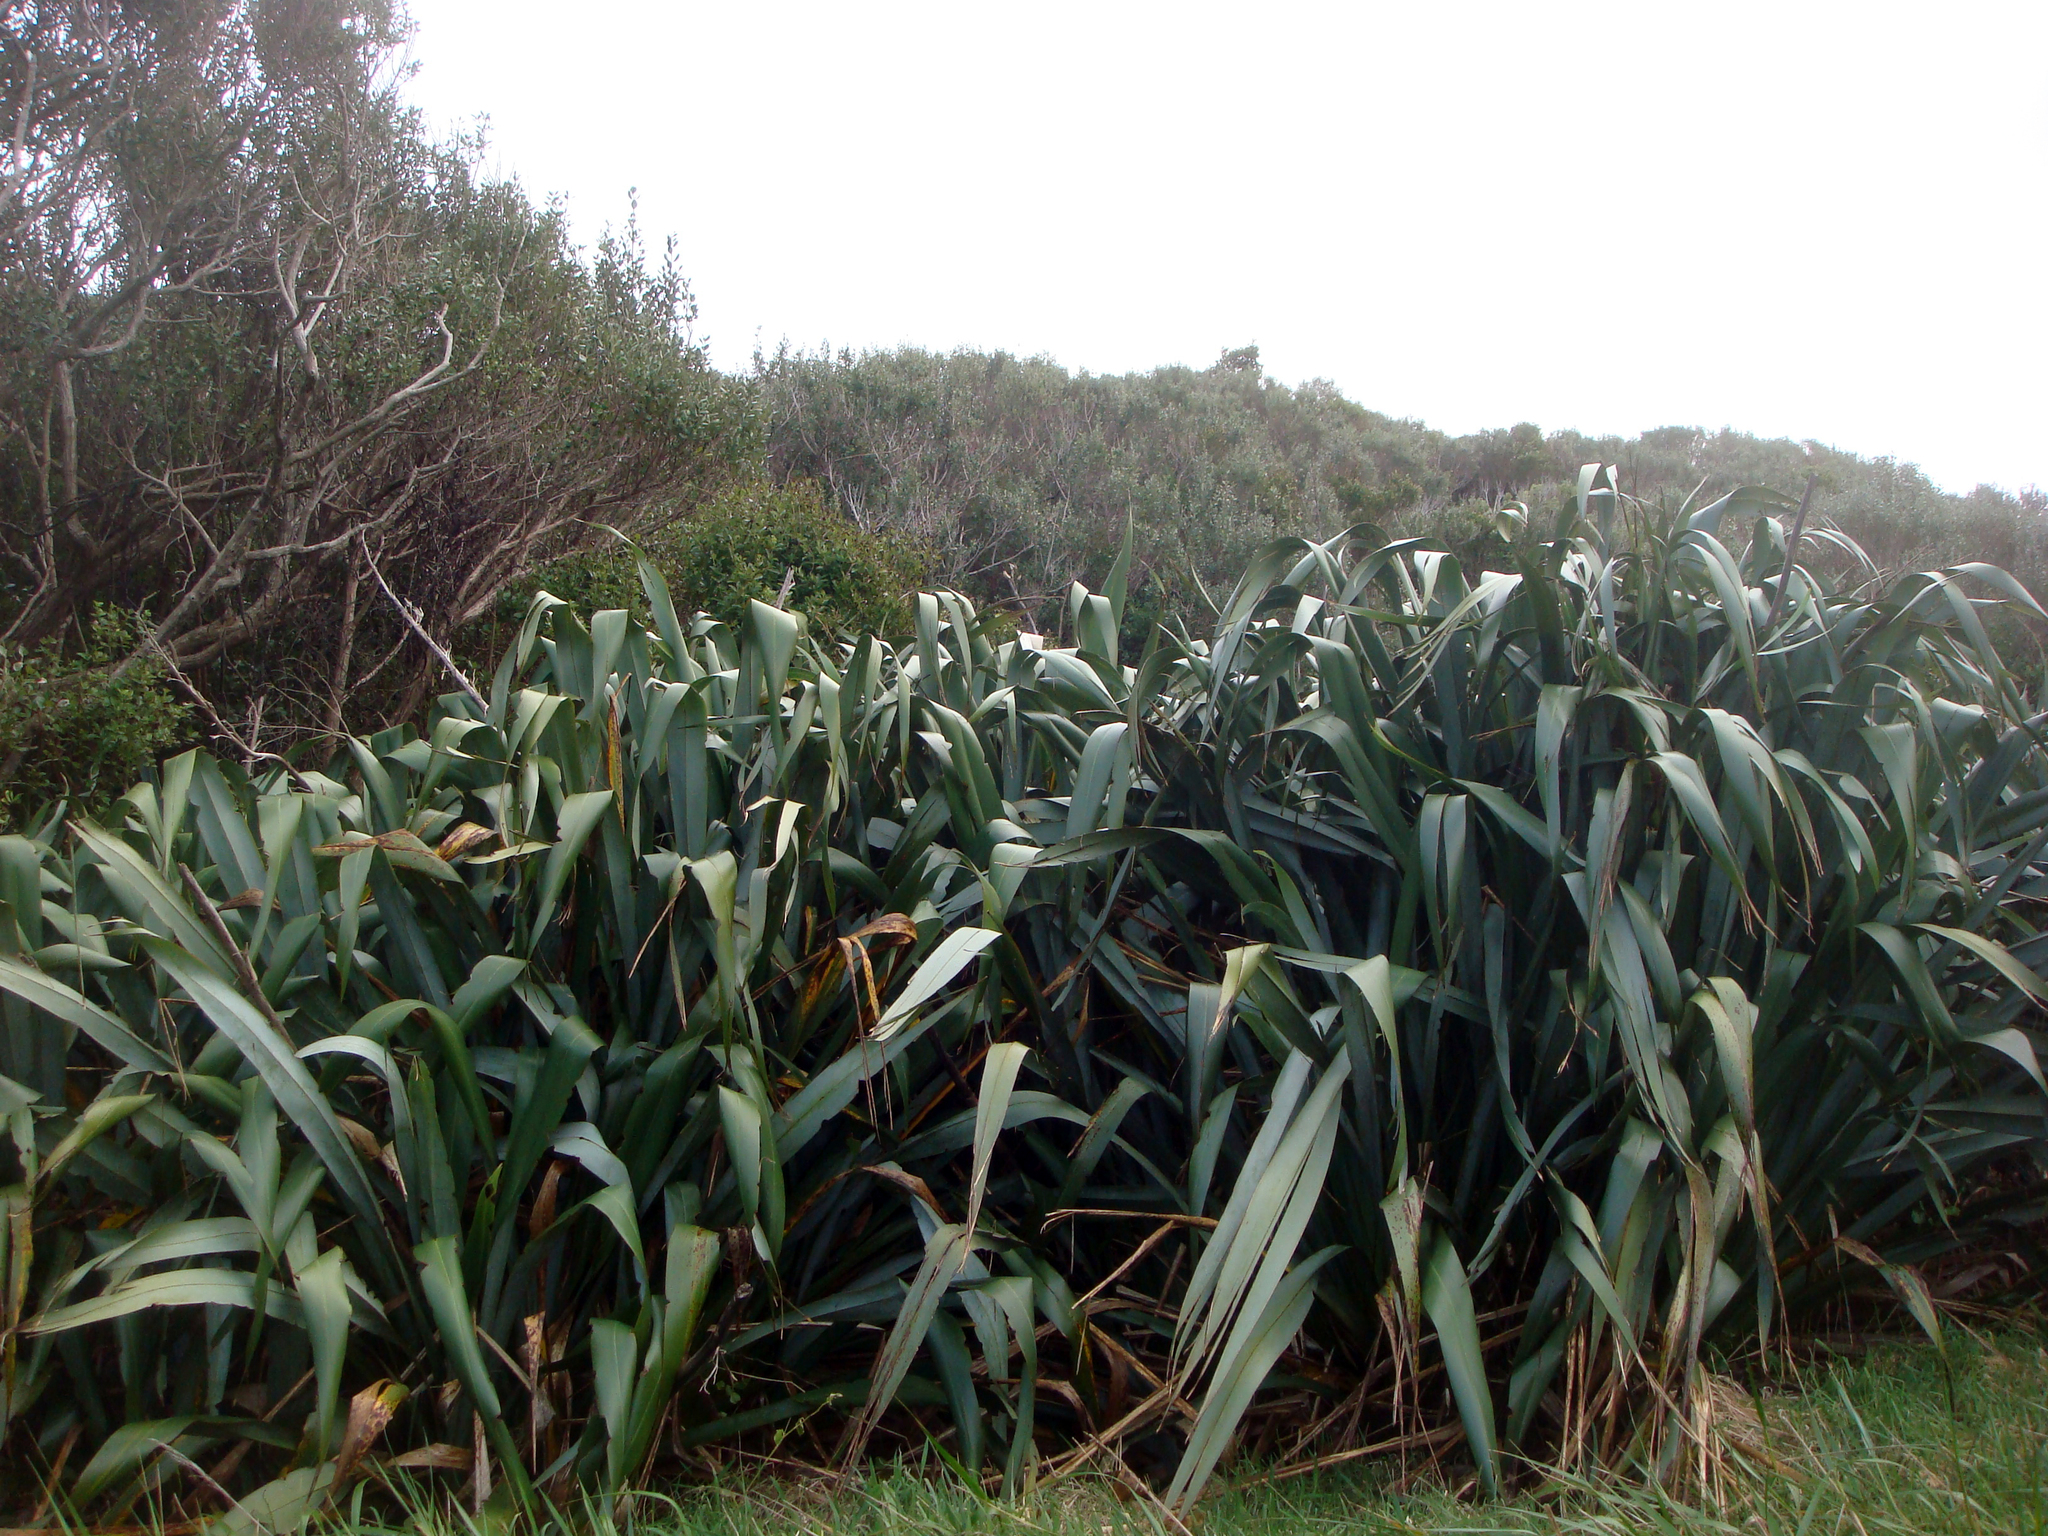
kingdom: Plantae
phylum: Tracheophyta
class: Liliopsida
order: Asparagales
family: Asphodelaceae
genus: Phormium
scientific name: Phormium tenax
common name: New zealand flax
